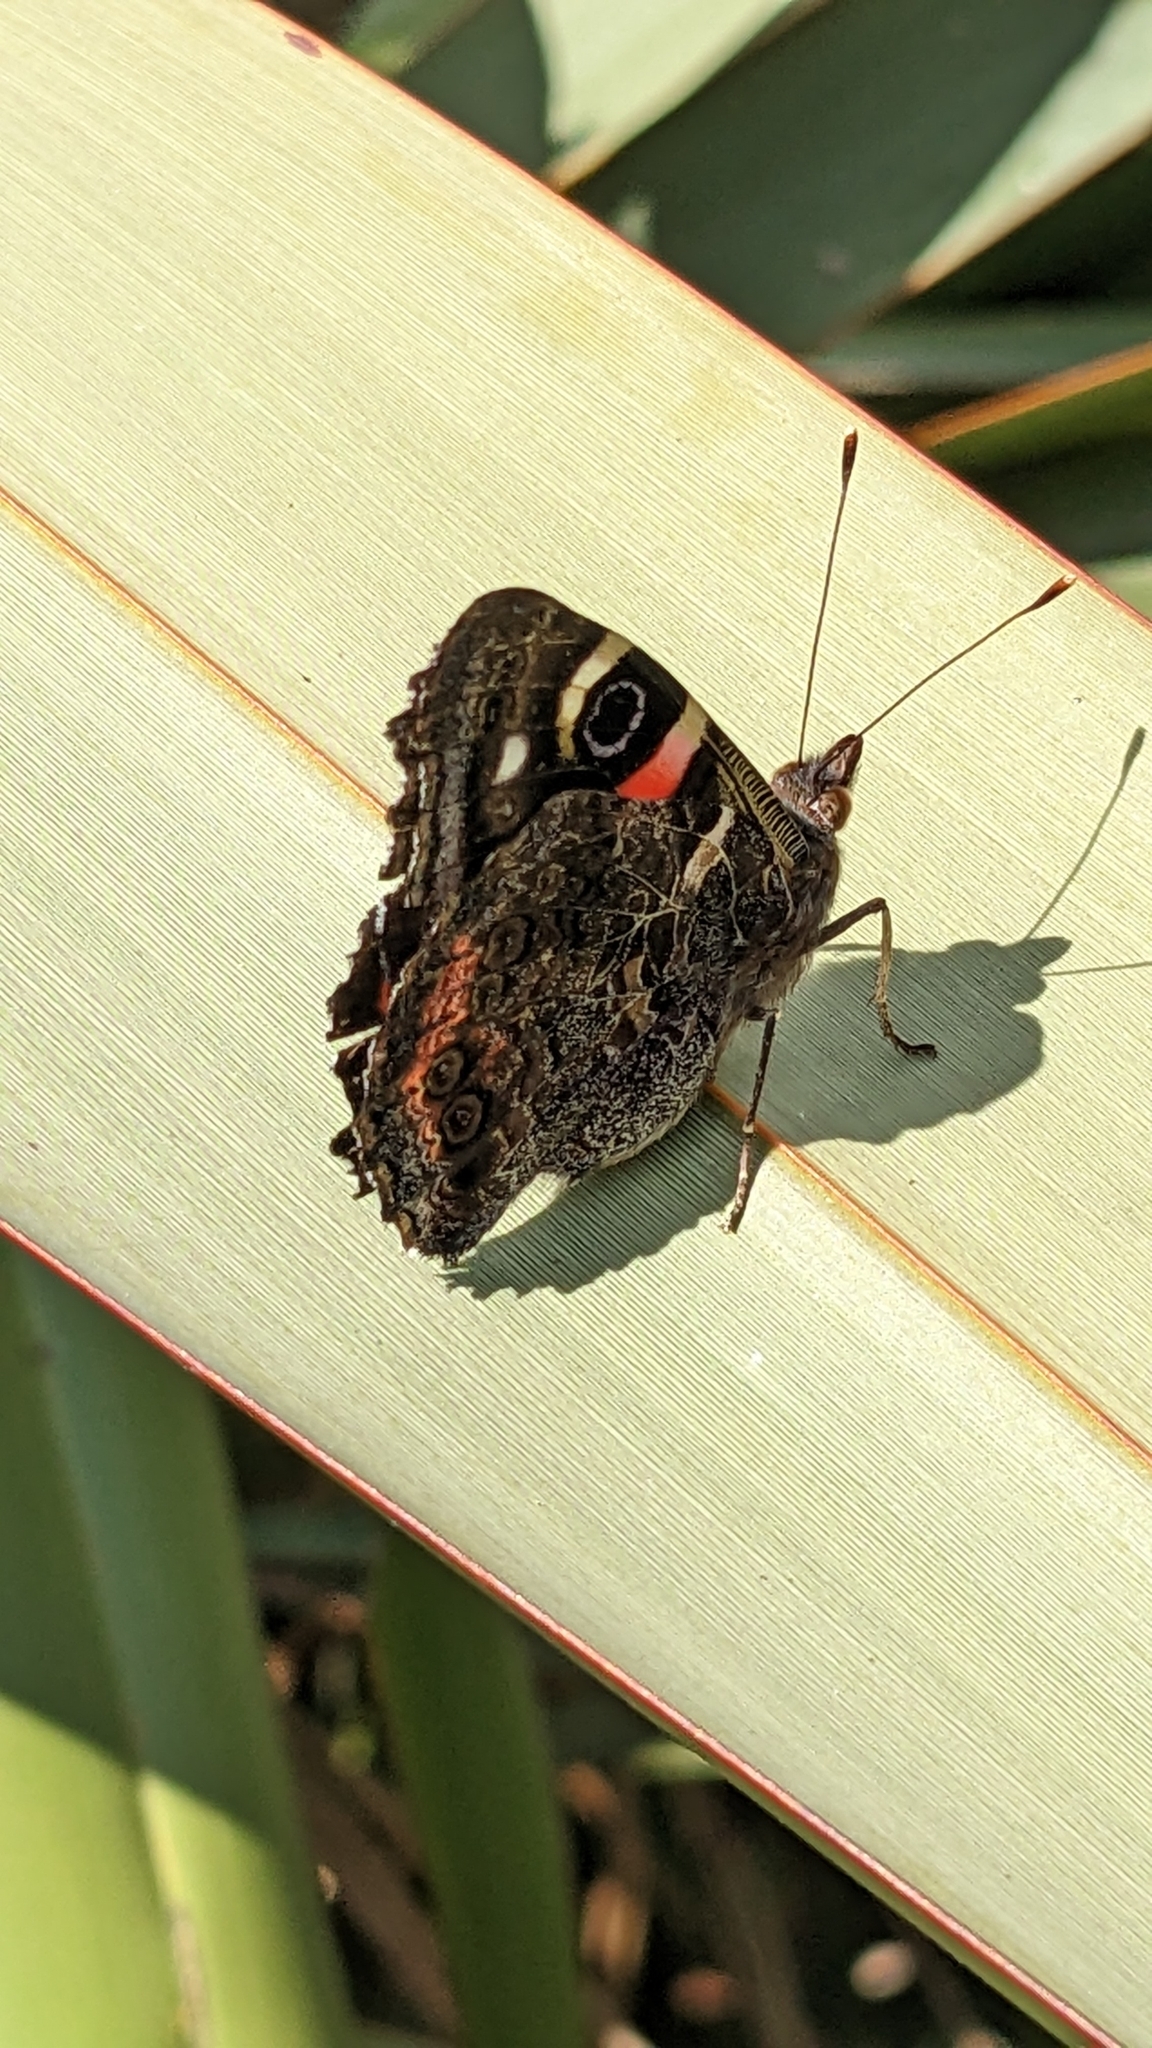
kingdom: Animalia
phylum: Arthropoda
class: Insecta
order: Lepidoptera
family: Nymphalidae
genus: Vanessa
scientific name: Vanessa gonerilla
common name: New zealand red admiral
